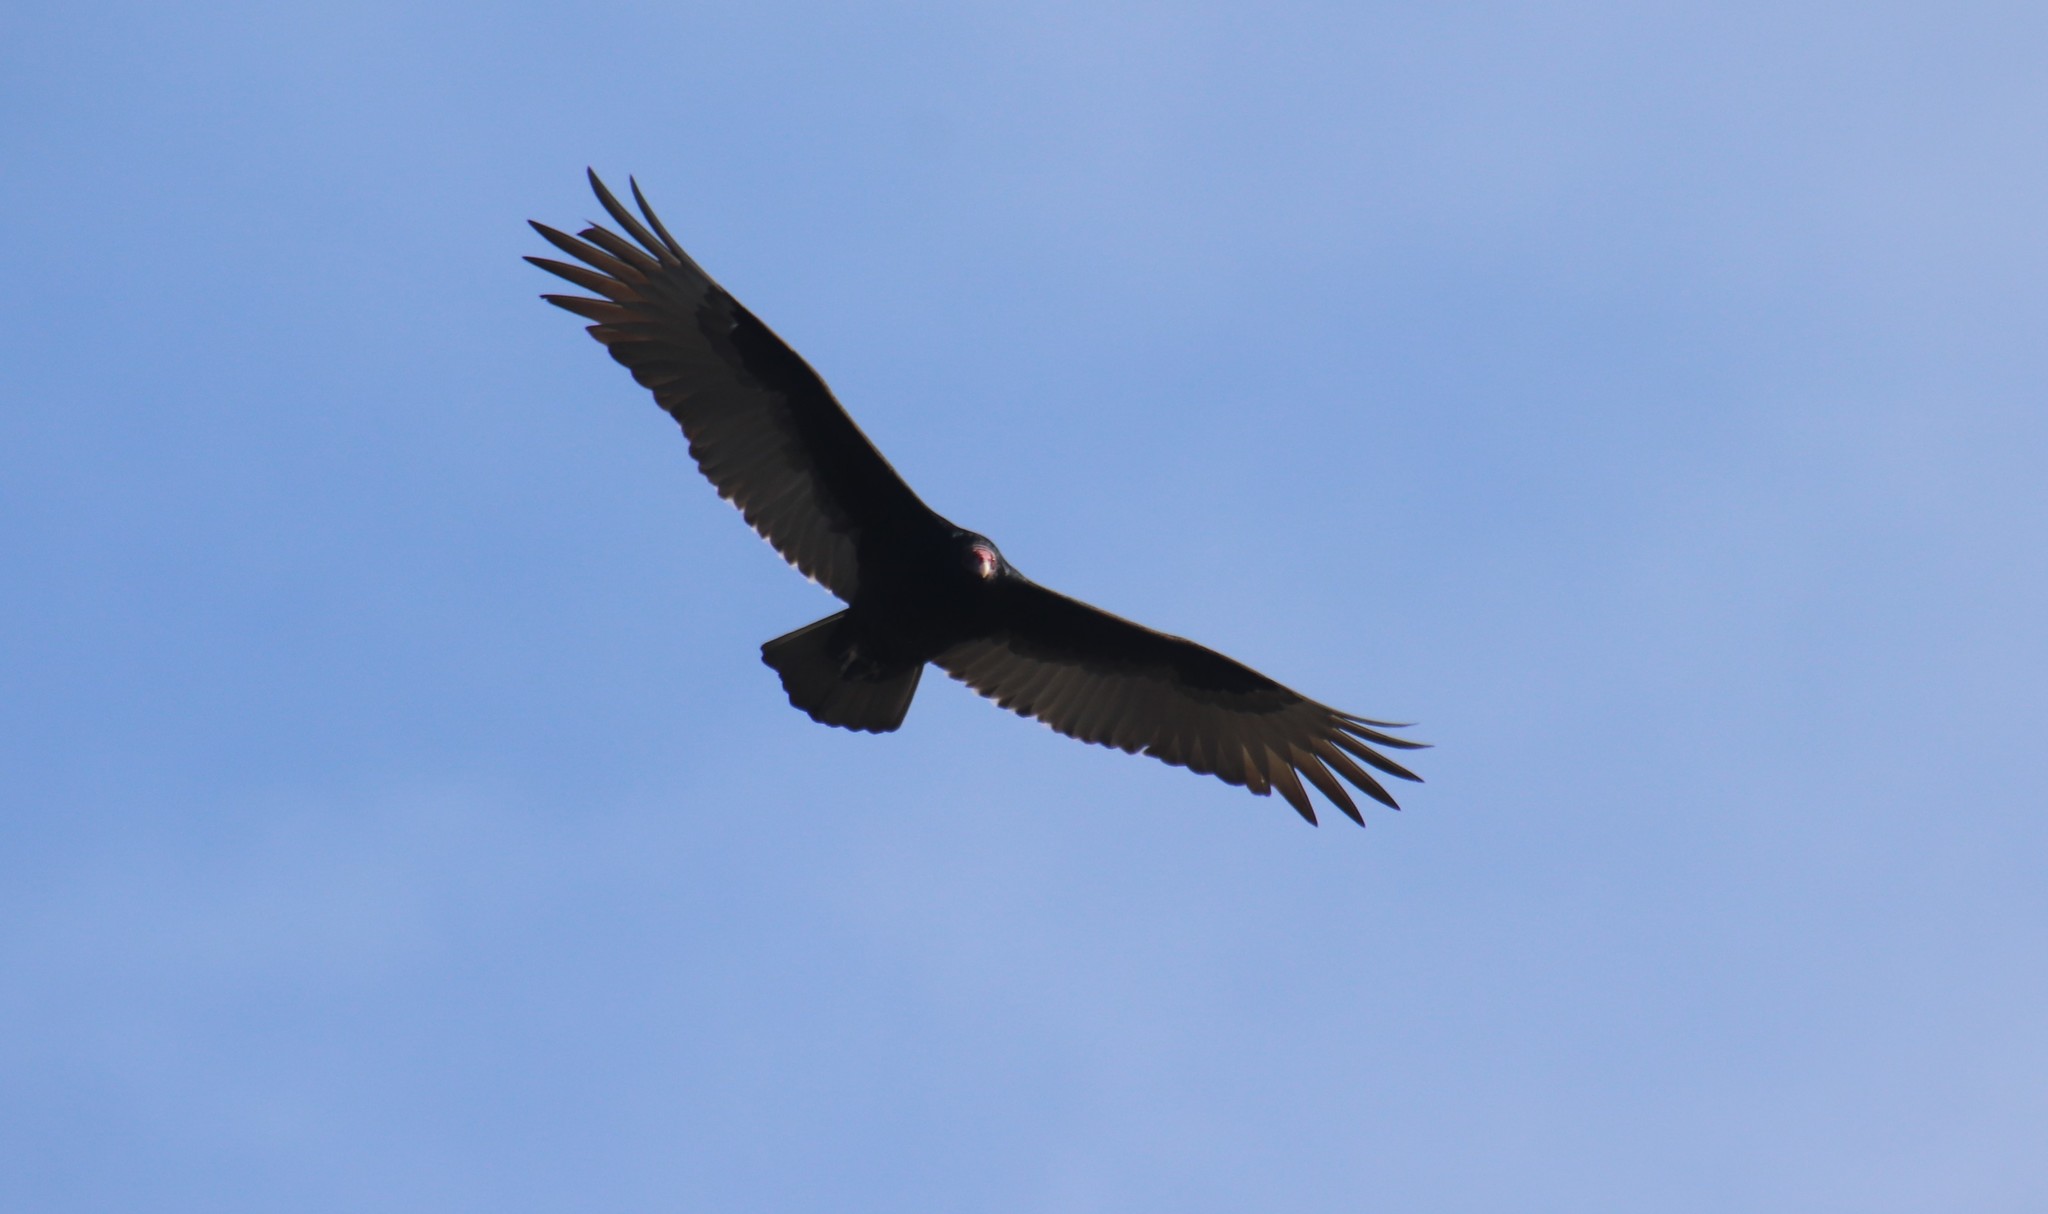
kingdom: Animalia
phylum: Chordata
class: Aves
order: Accipitriformes
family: Cathartidae
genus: Cathartes
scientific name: Cathartes aura
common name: Turkey vulture
